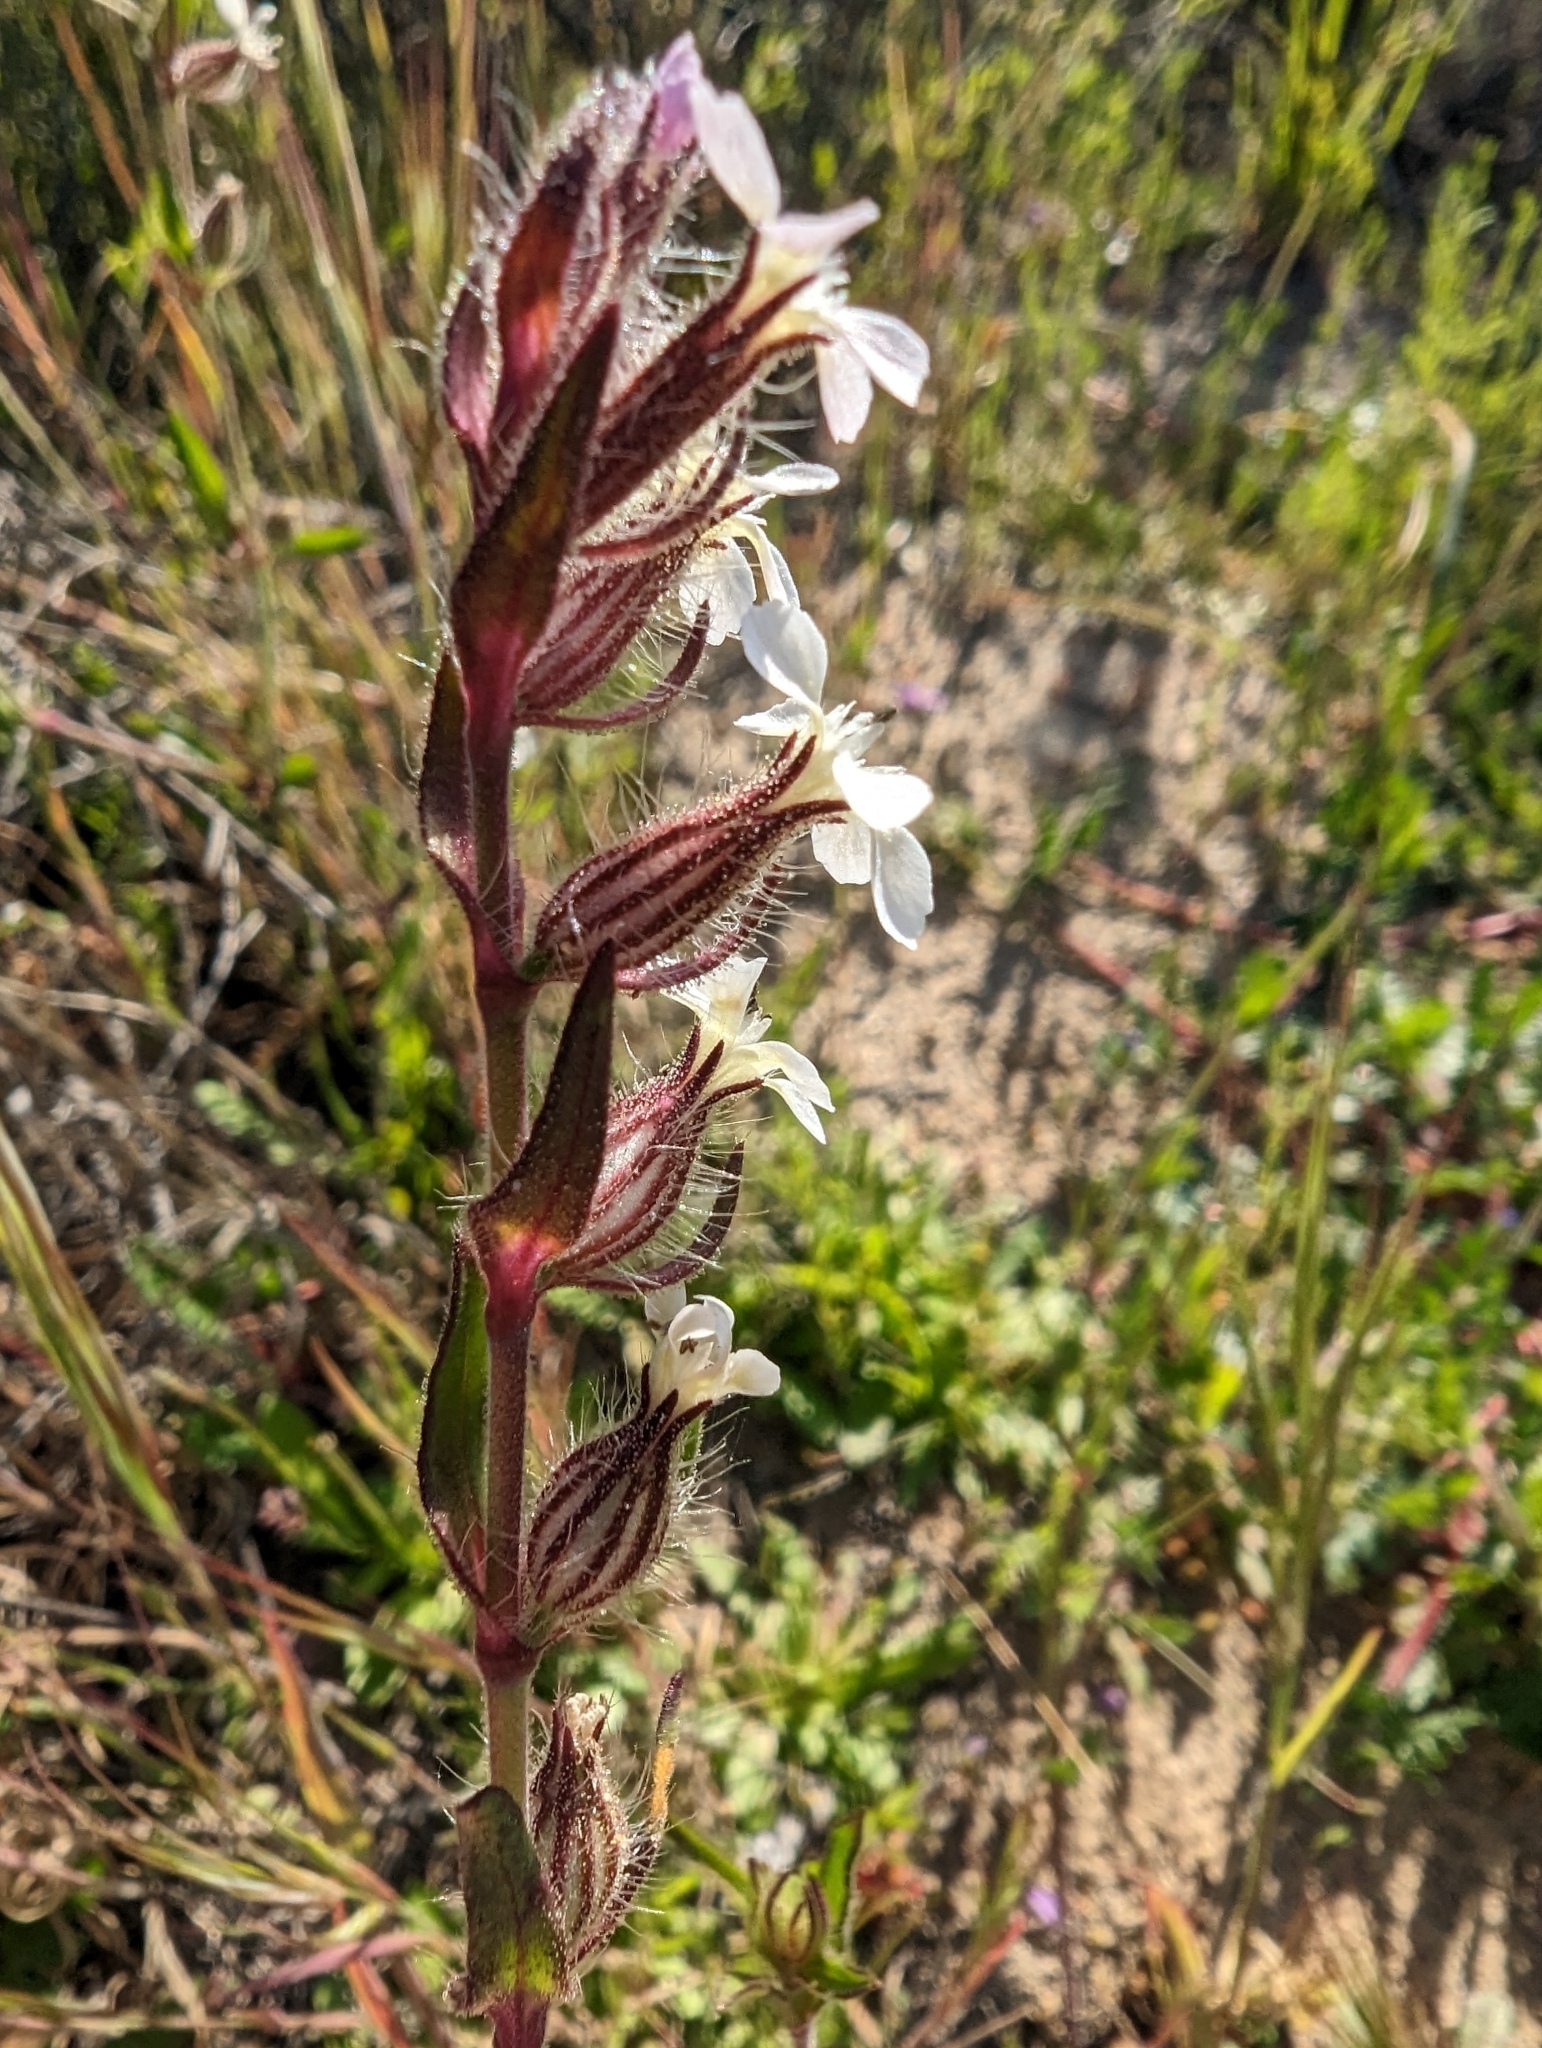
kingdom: Plantae
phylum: Tracheophyta
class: Magnoliopsida
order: Caryophyllales
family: Caryophyllaceae
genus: Silene
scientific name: Silene gallica
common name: Small-flowered catchfly
